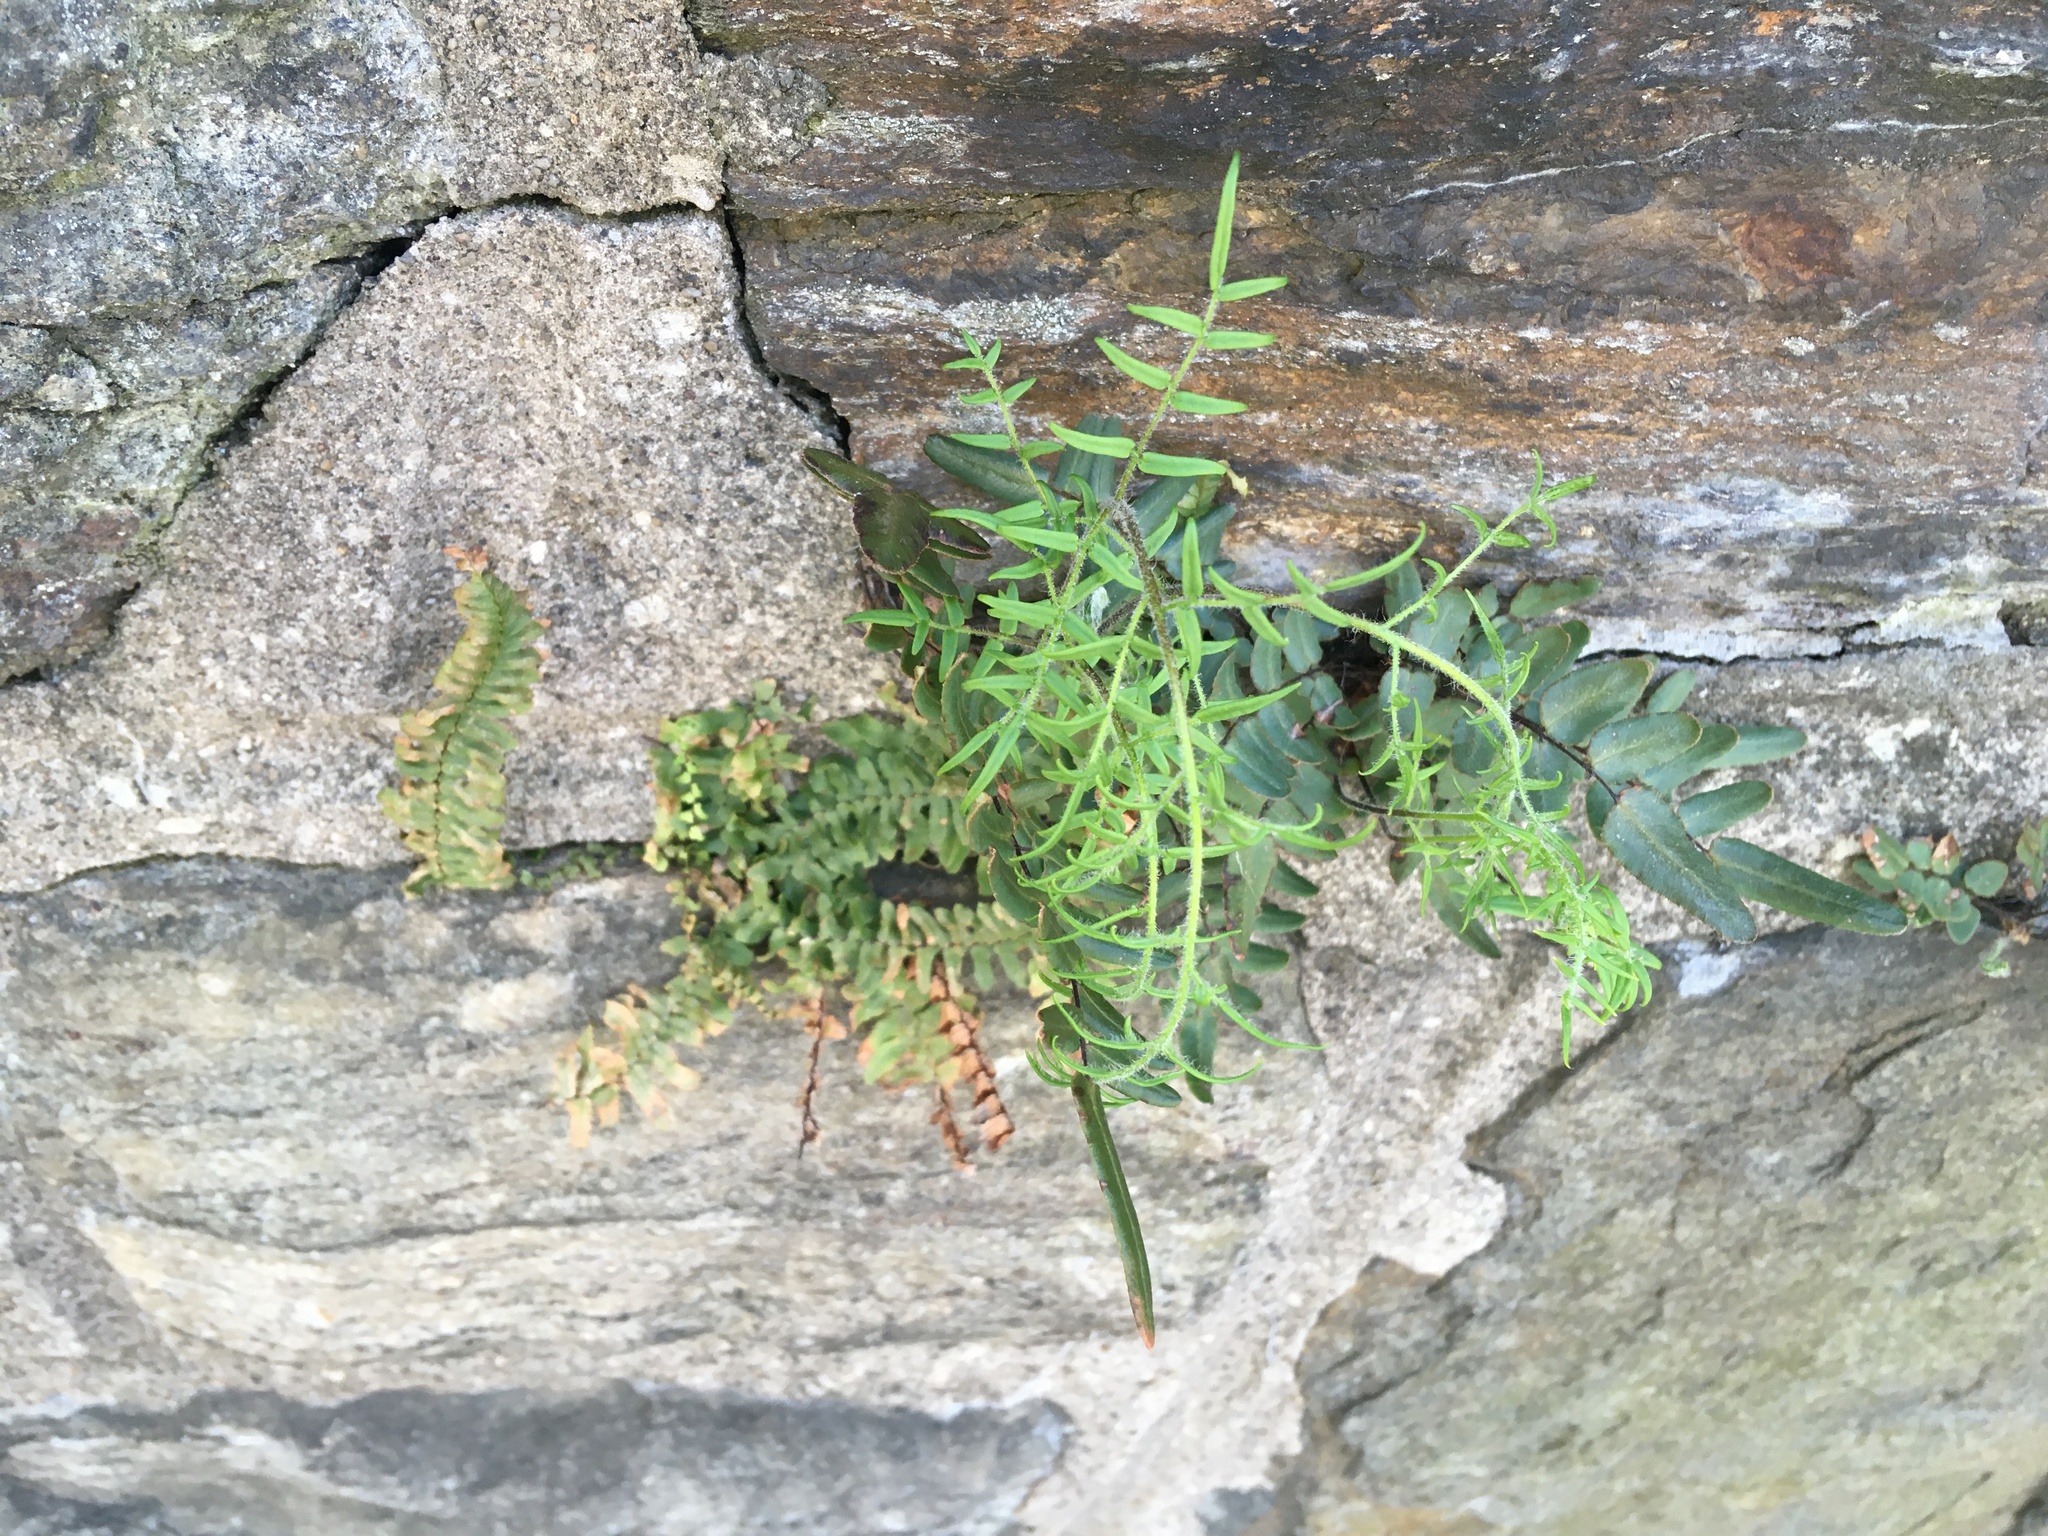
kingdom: Plantae
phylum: Tracheophyta
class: Polypodiopsida
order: Polypodiales
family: Pteridaceae
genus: Pellaea
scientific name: Pellaea atropurpurea
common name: Hairy cliffbrake
